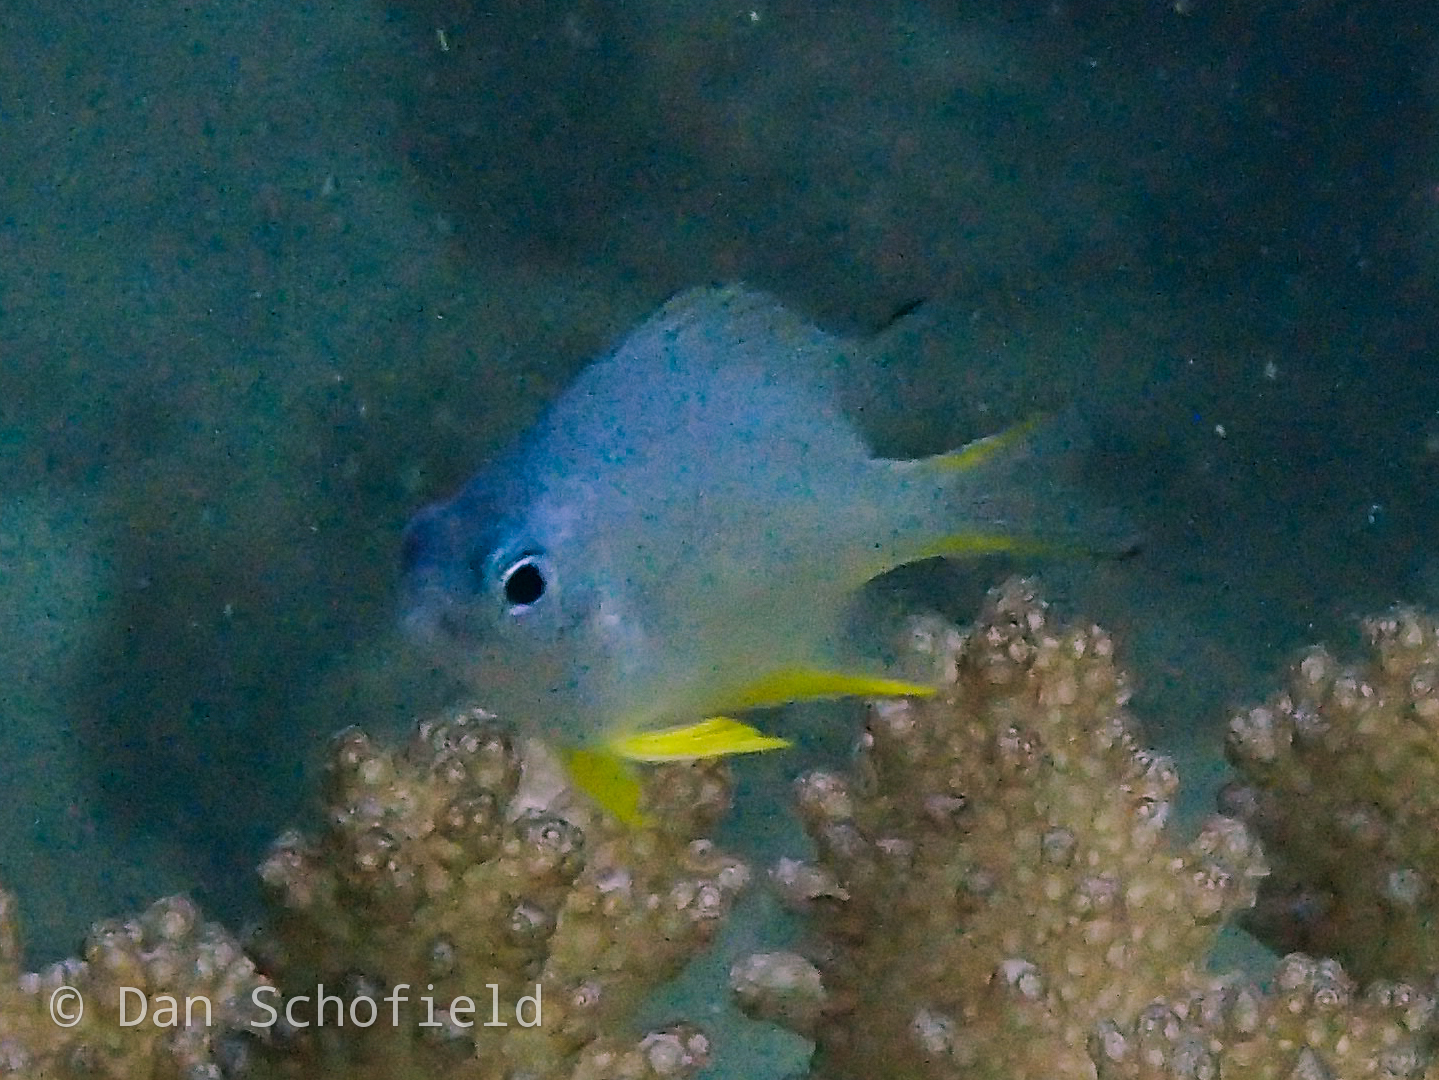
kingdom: Animalia
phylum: Chordata
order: Perciformes
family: Pomacentridae
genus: Amblyglyphidodon
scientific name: Amblyglyphidodon leucogaster
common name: White-belly damsel
